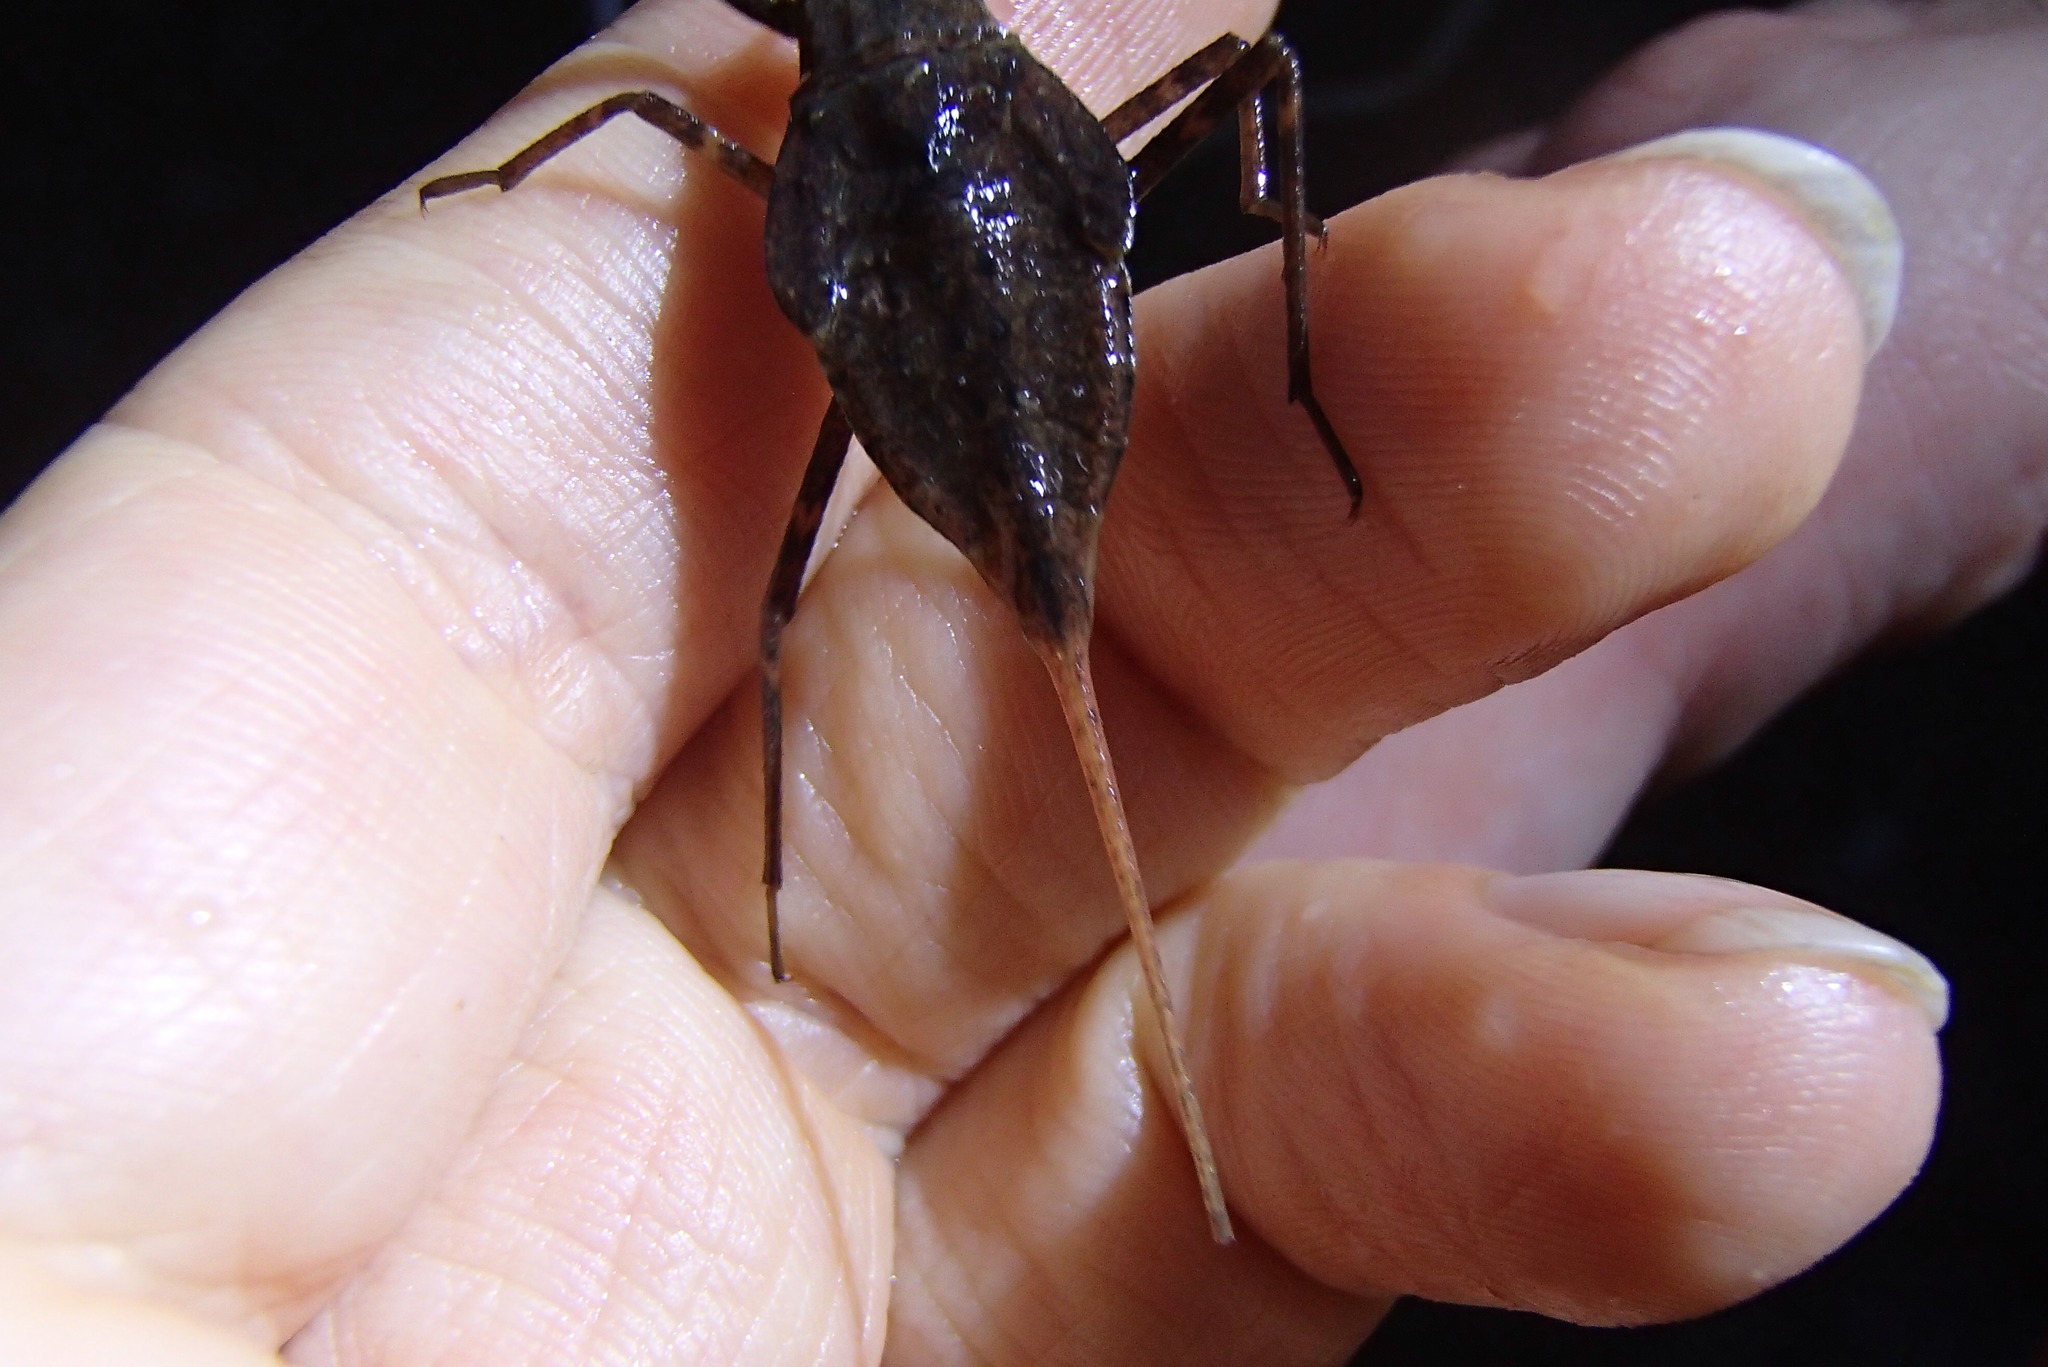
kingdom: Animalia
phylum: Arthropoda
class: Insecta
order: Hemiptera
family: Nepidae
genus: Laccotrephes
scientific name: Laccotrephes tristis
